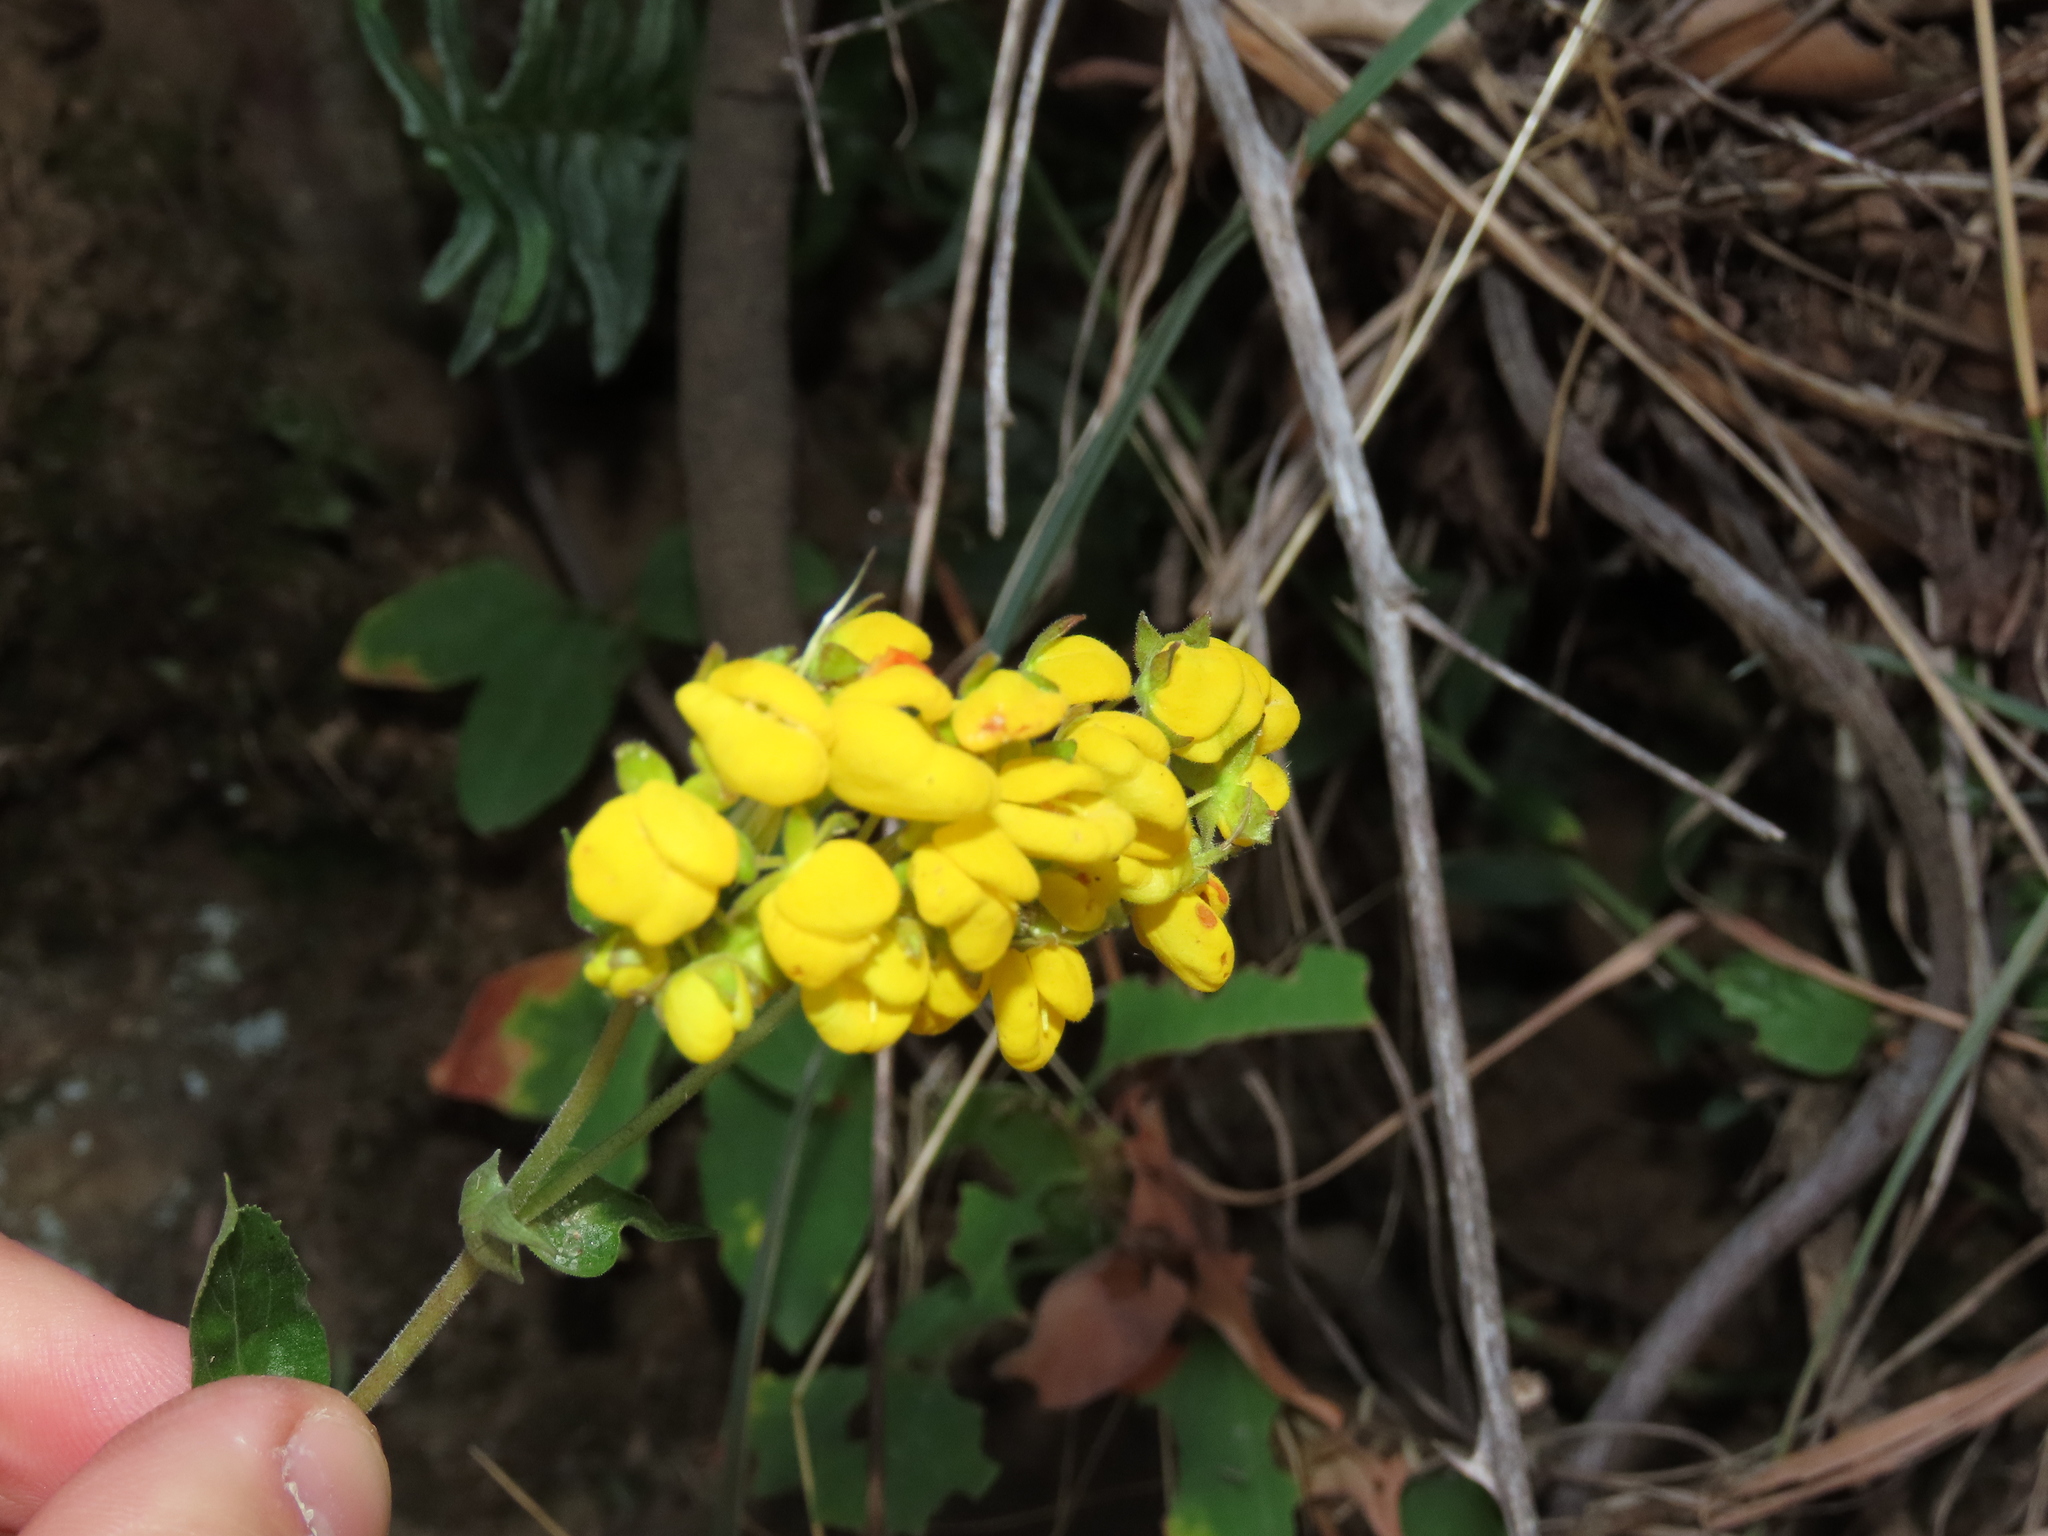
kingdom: Plantae
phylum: Tracheophyta
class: Magnoliopsida
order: Lamiales
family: Calceolariaceae
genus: Calceolaria
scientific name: Calceolaria dentata
